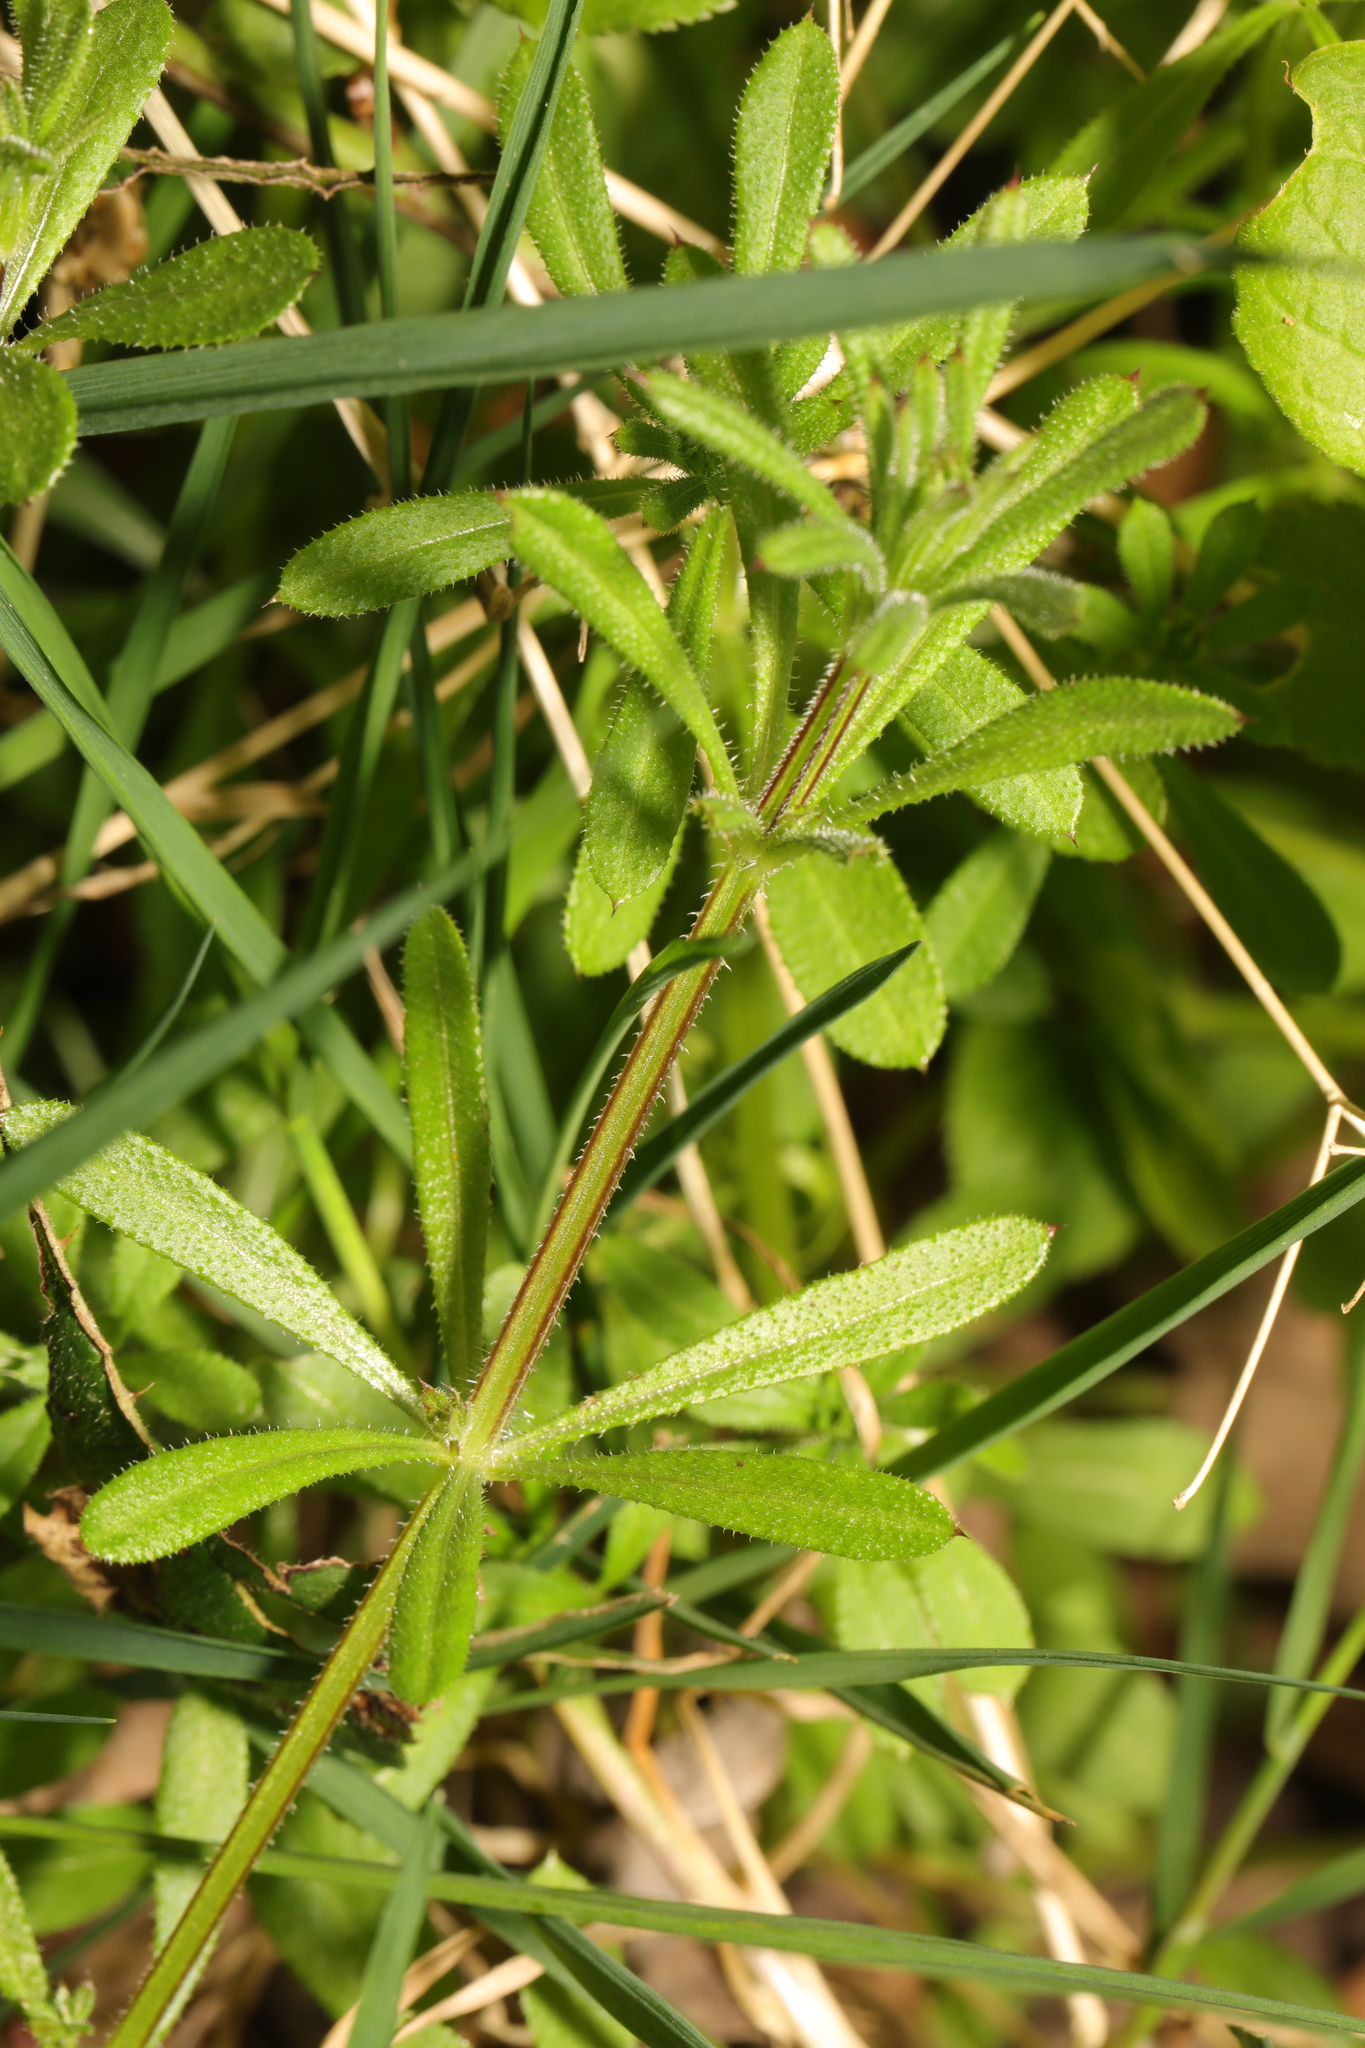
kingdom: Plantae
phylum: Tracheophyta
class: Magnoliopsida
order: Gentianales
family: Rubiaceae
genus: Galium
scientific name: Galium aparine
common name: Cleavers
